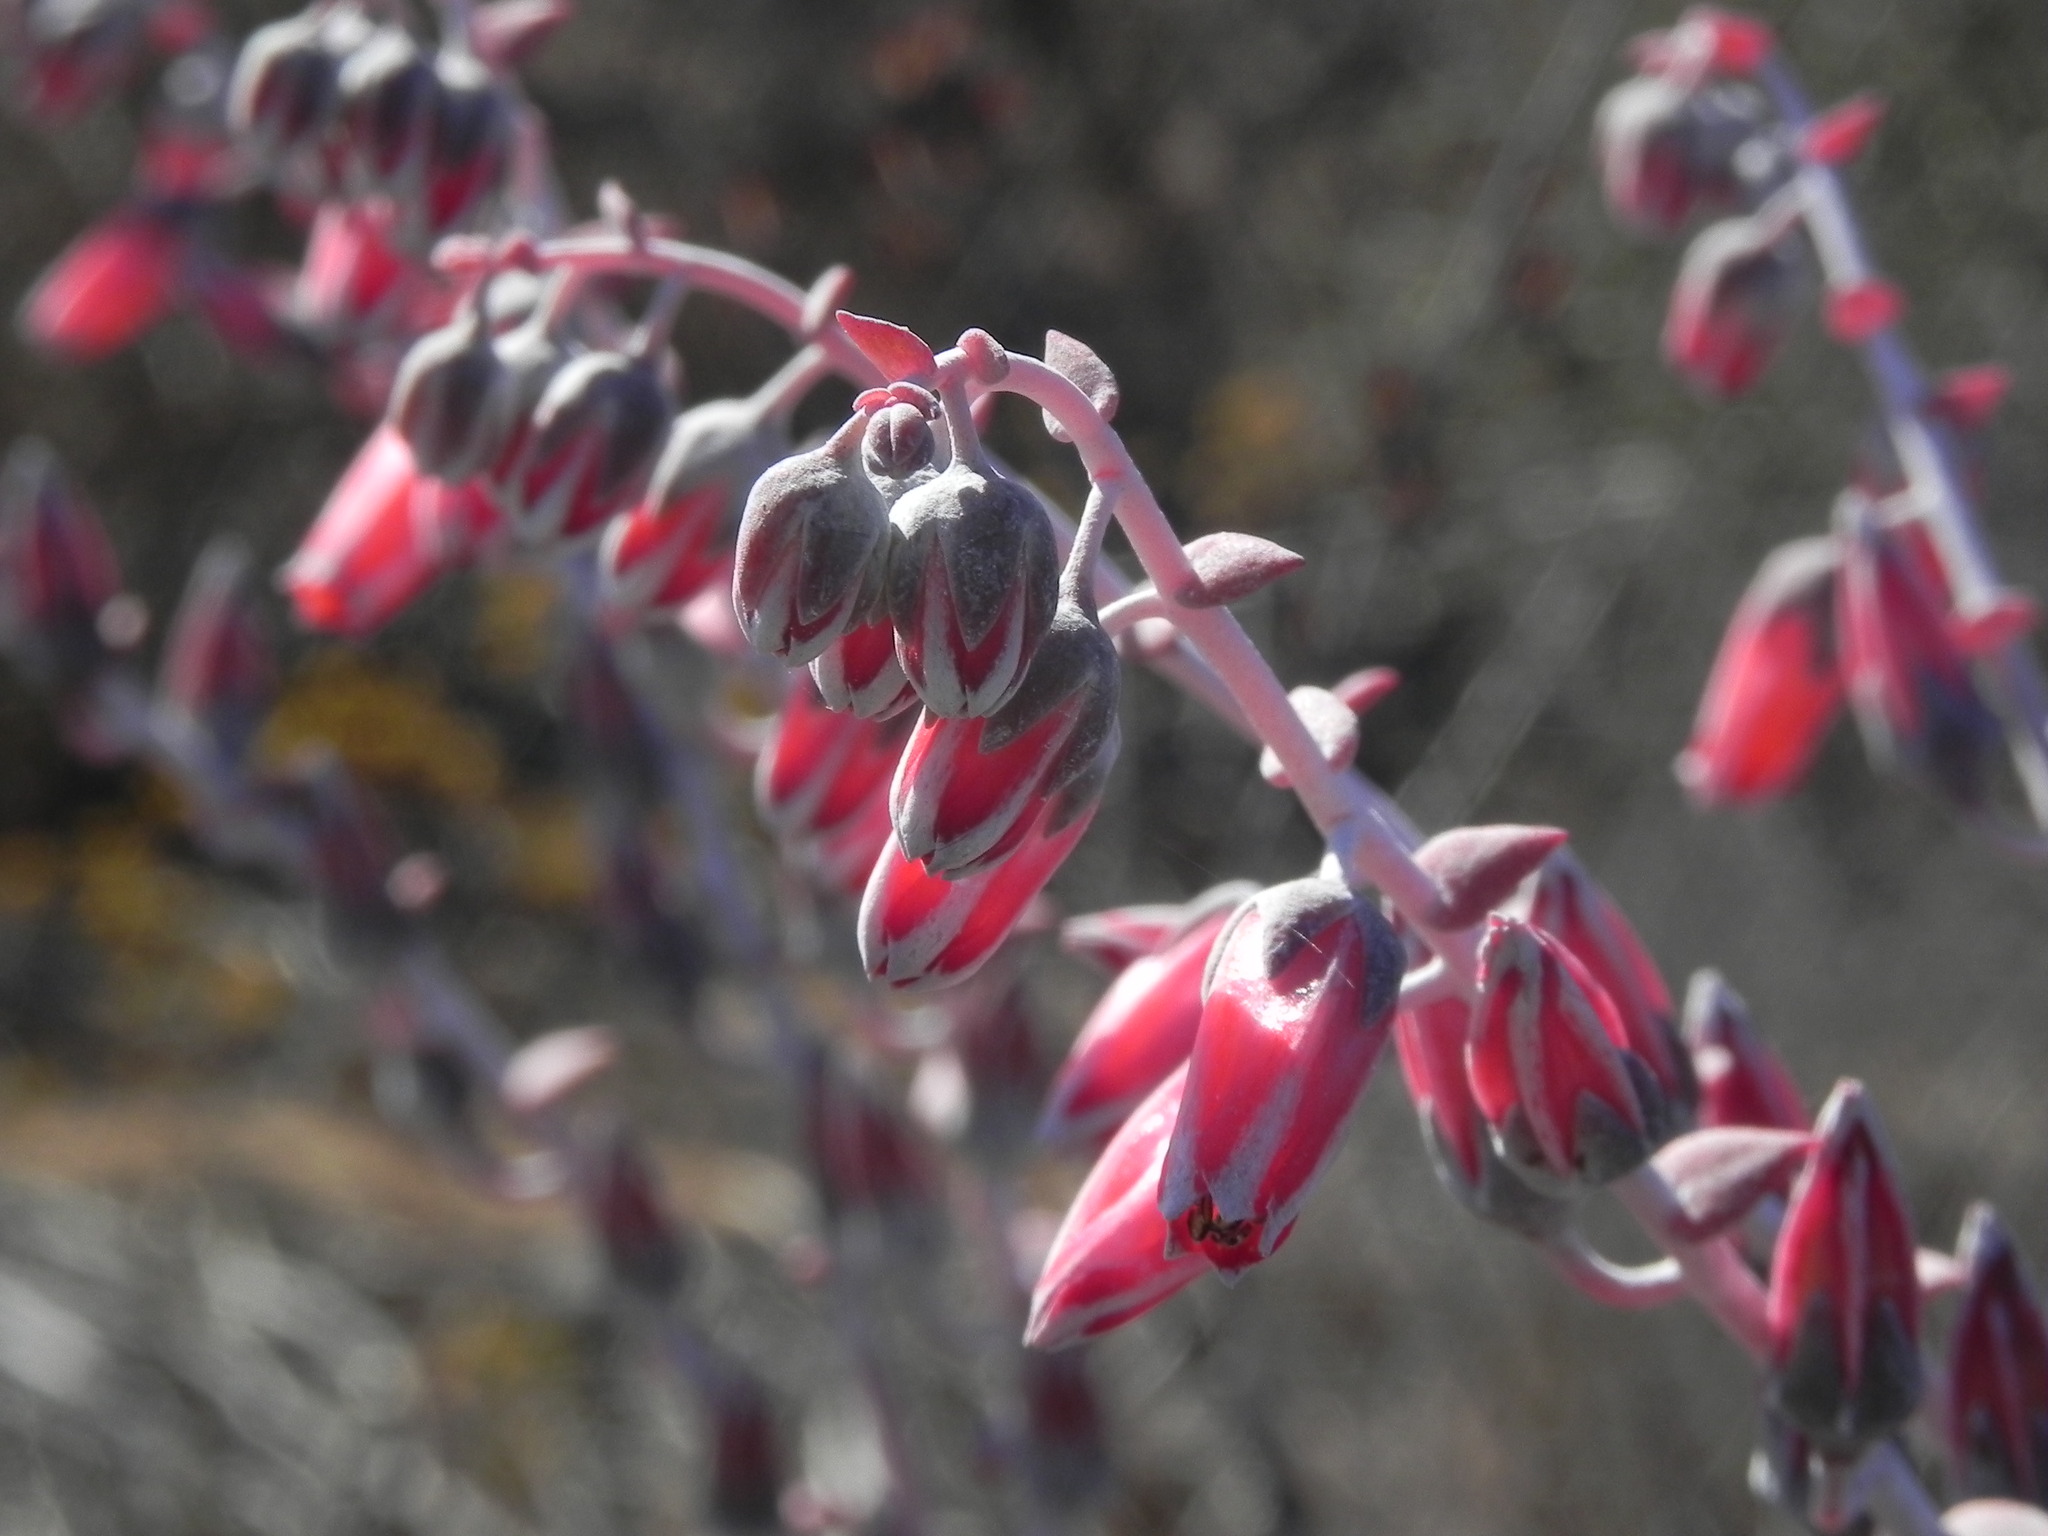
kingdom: Plantae
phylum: Tracheophyta
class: Magnoliopsida
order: Saxifragales
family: Crassulaceae
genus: Dudleya
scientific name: Dudleya pulverulenta
